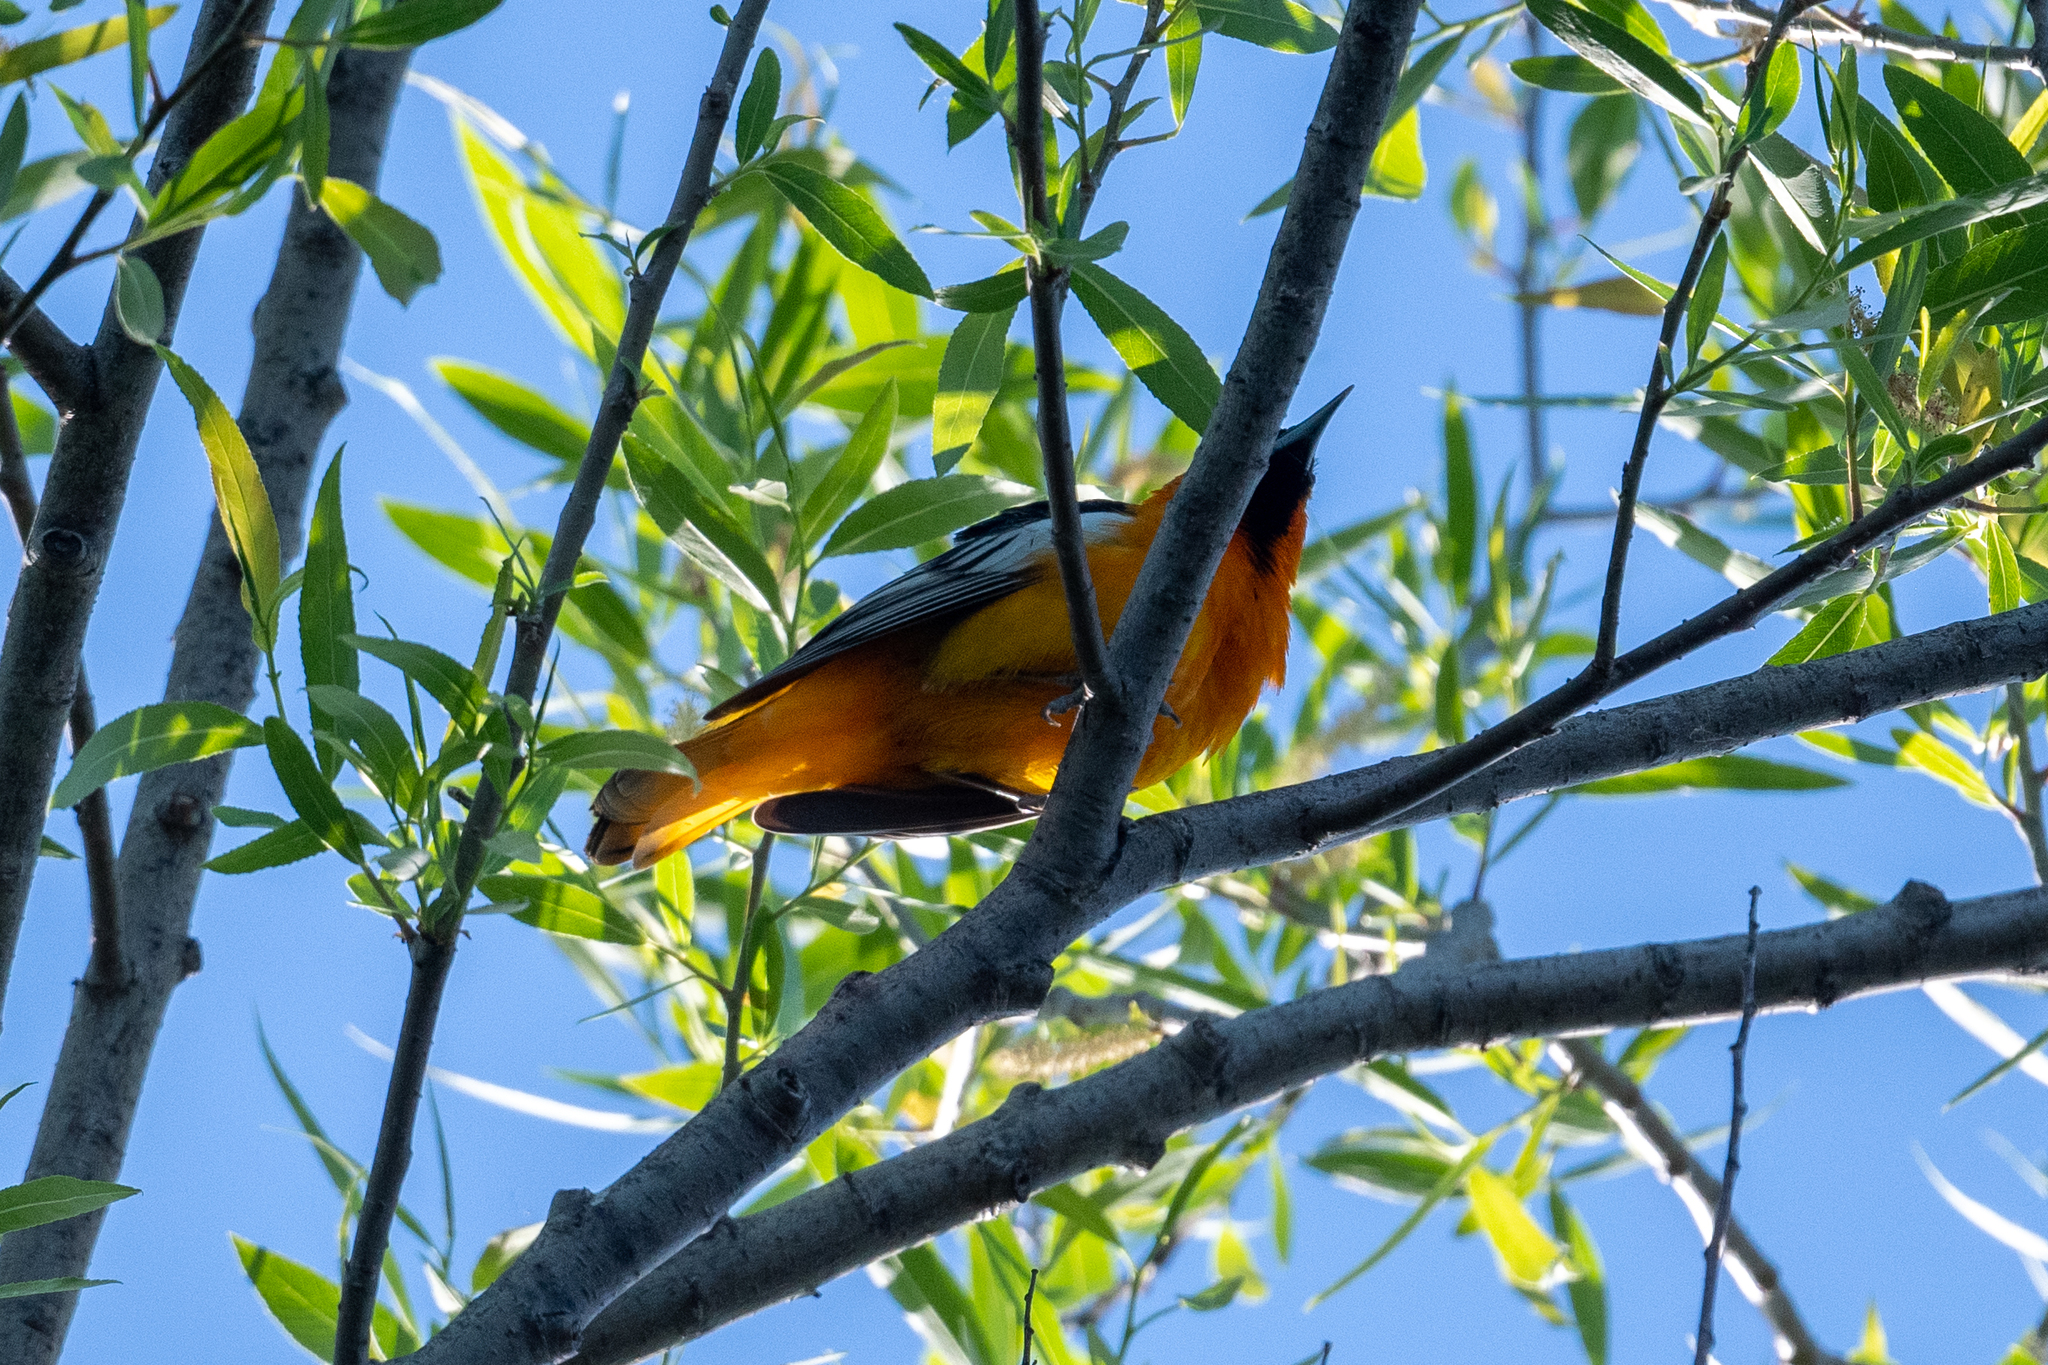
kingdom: Animalia
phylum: Chordata
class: Aves
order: Passeriformes
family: Icteridae
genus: Icterus
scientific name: Icterus bullockii
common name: Bullock's oriole
